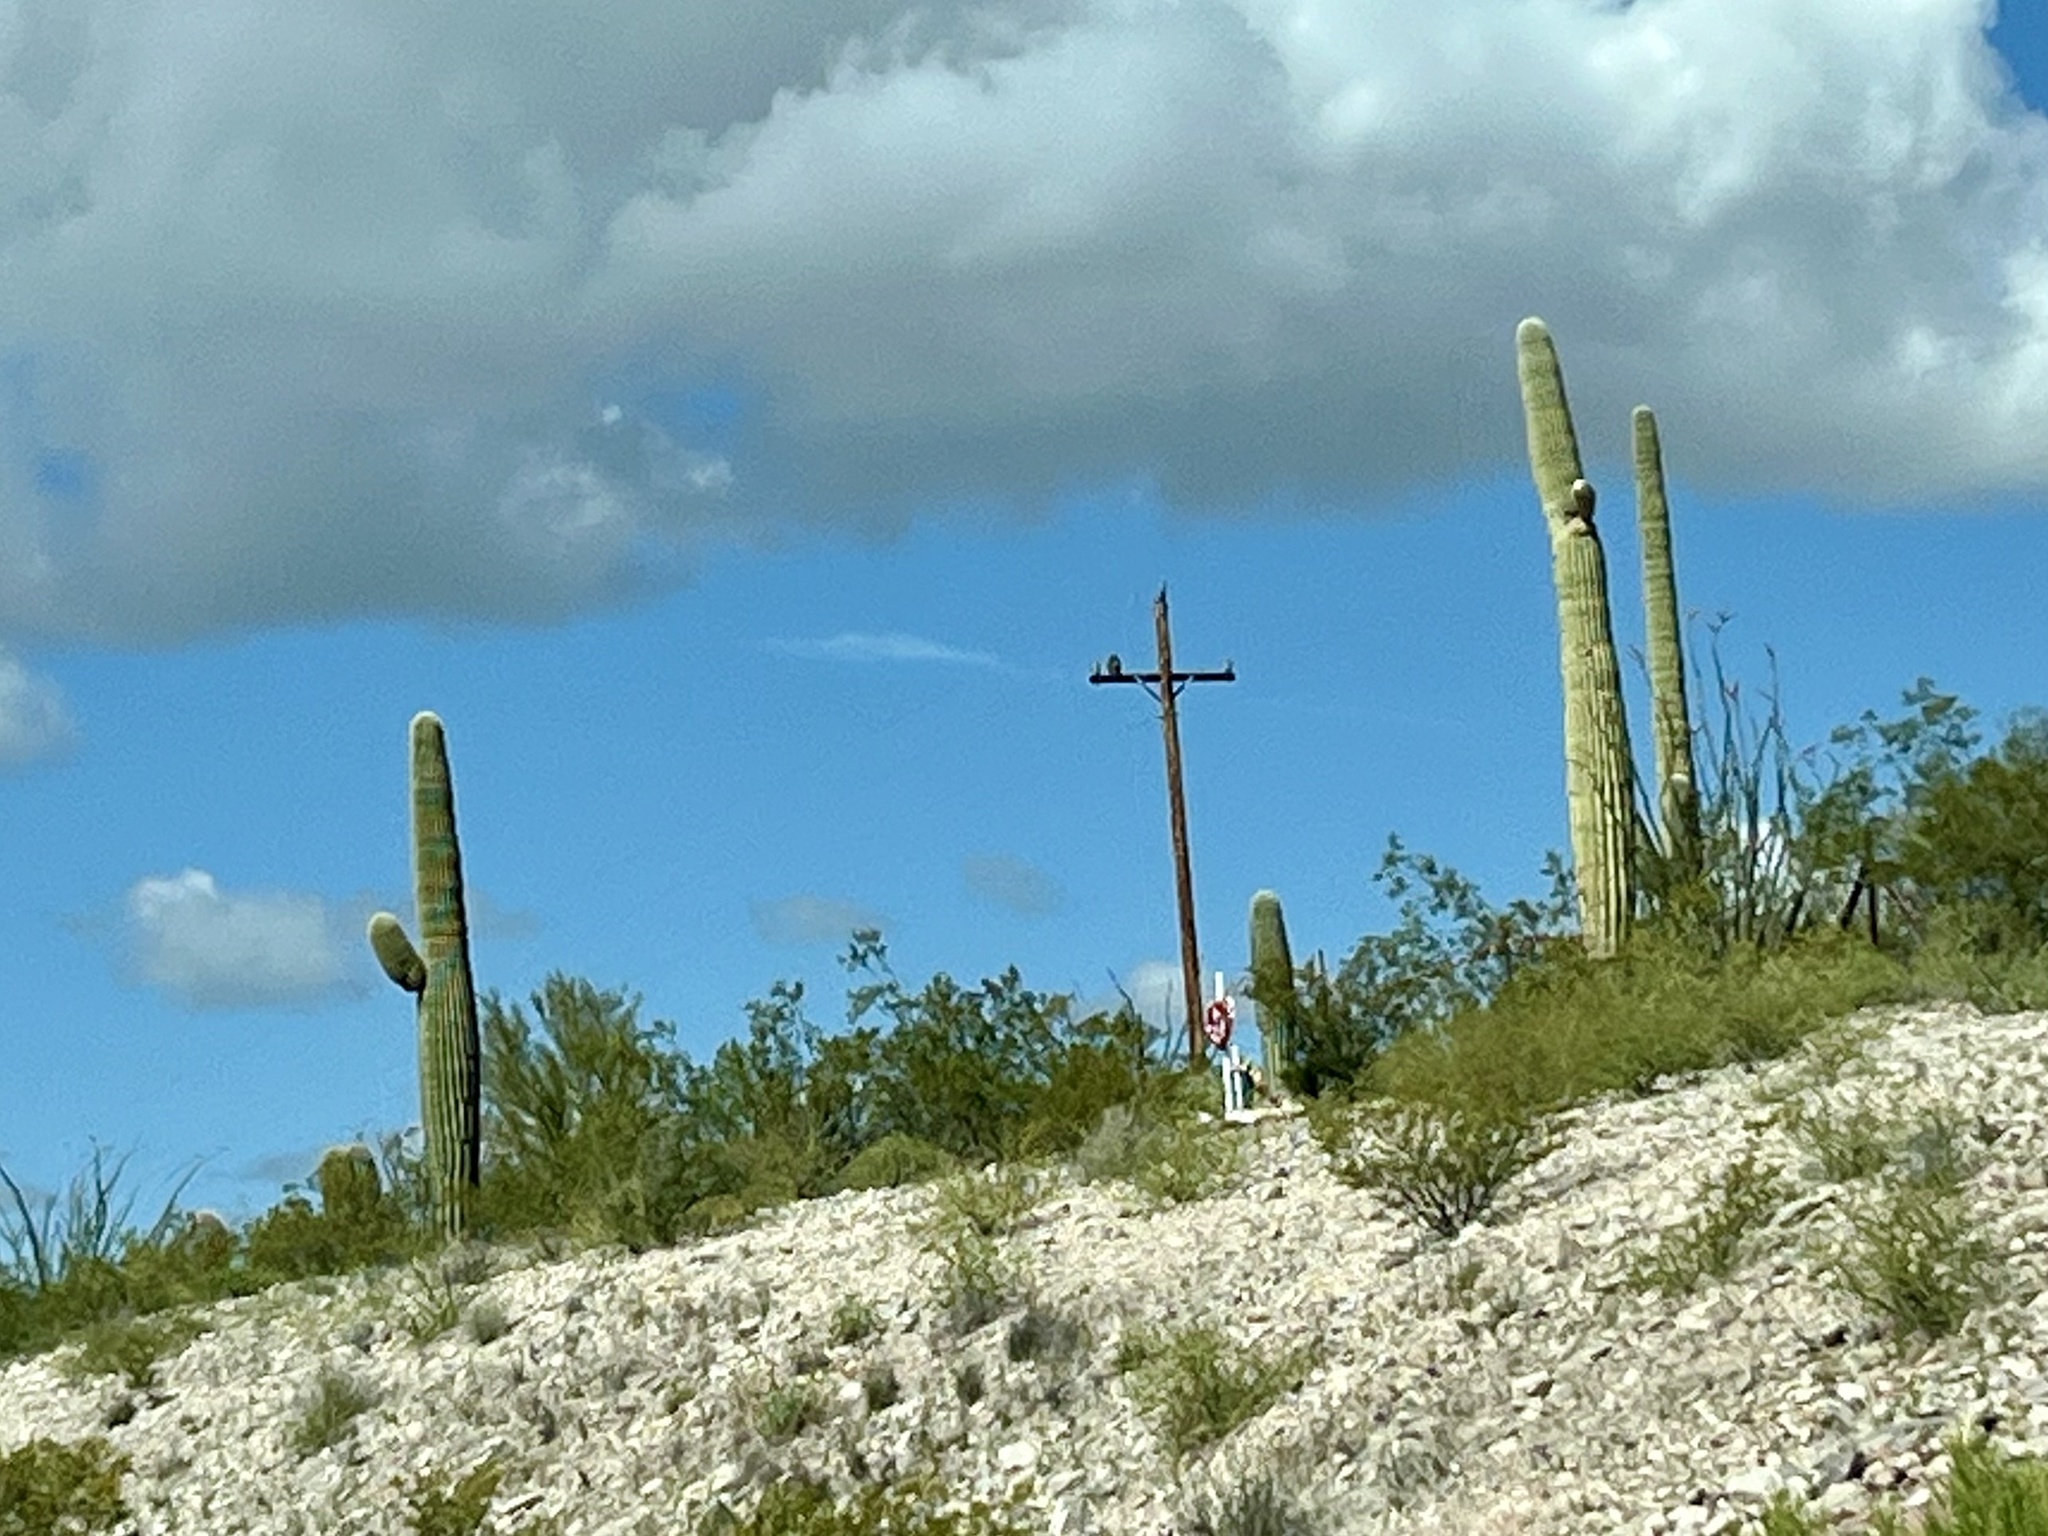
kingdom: Plantae
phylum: Tracheophyta
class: Magnoliopsida
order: Caryophyllales
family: Cactaceae
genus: Carnegiea
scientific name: Carnegiea gigantea
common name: Saguaro
